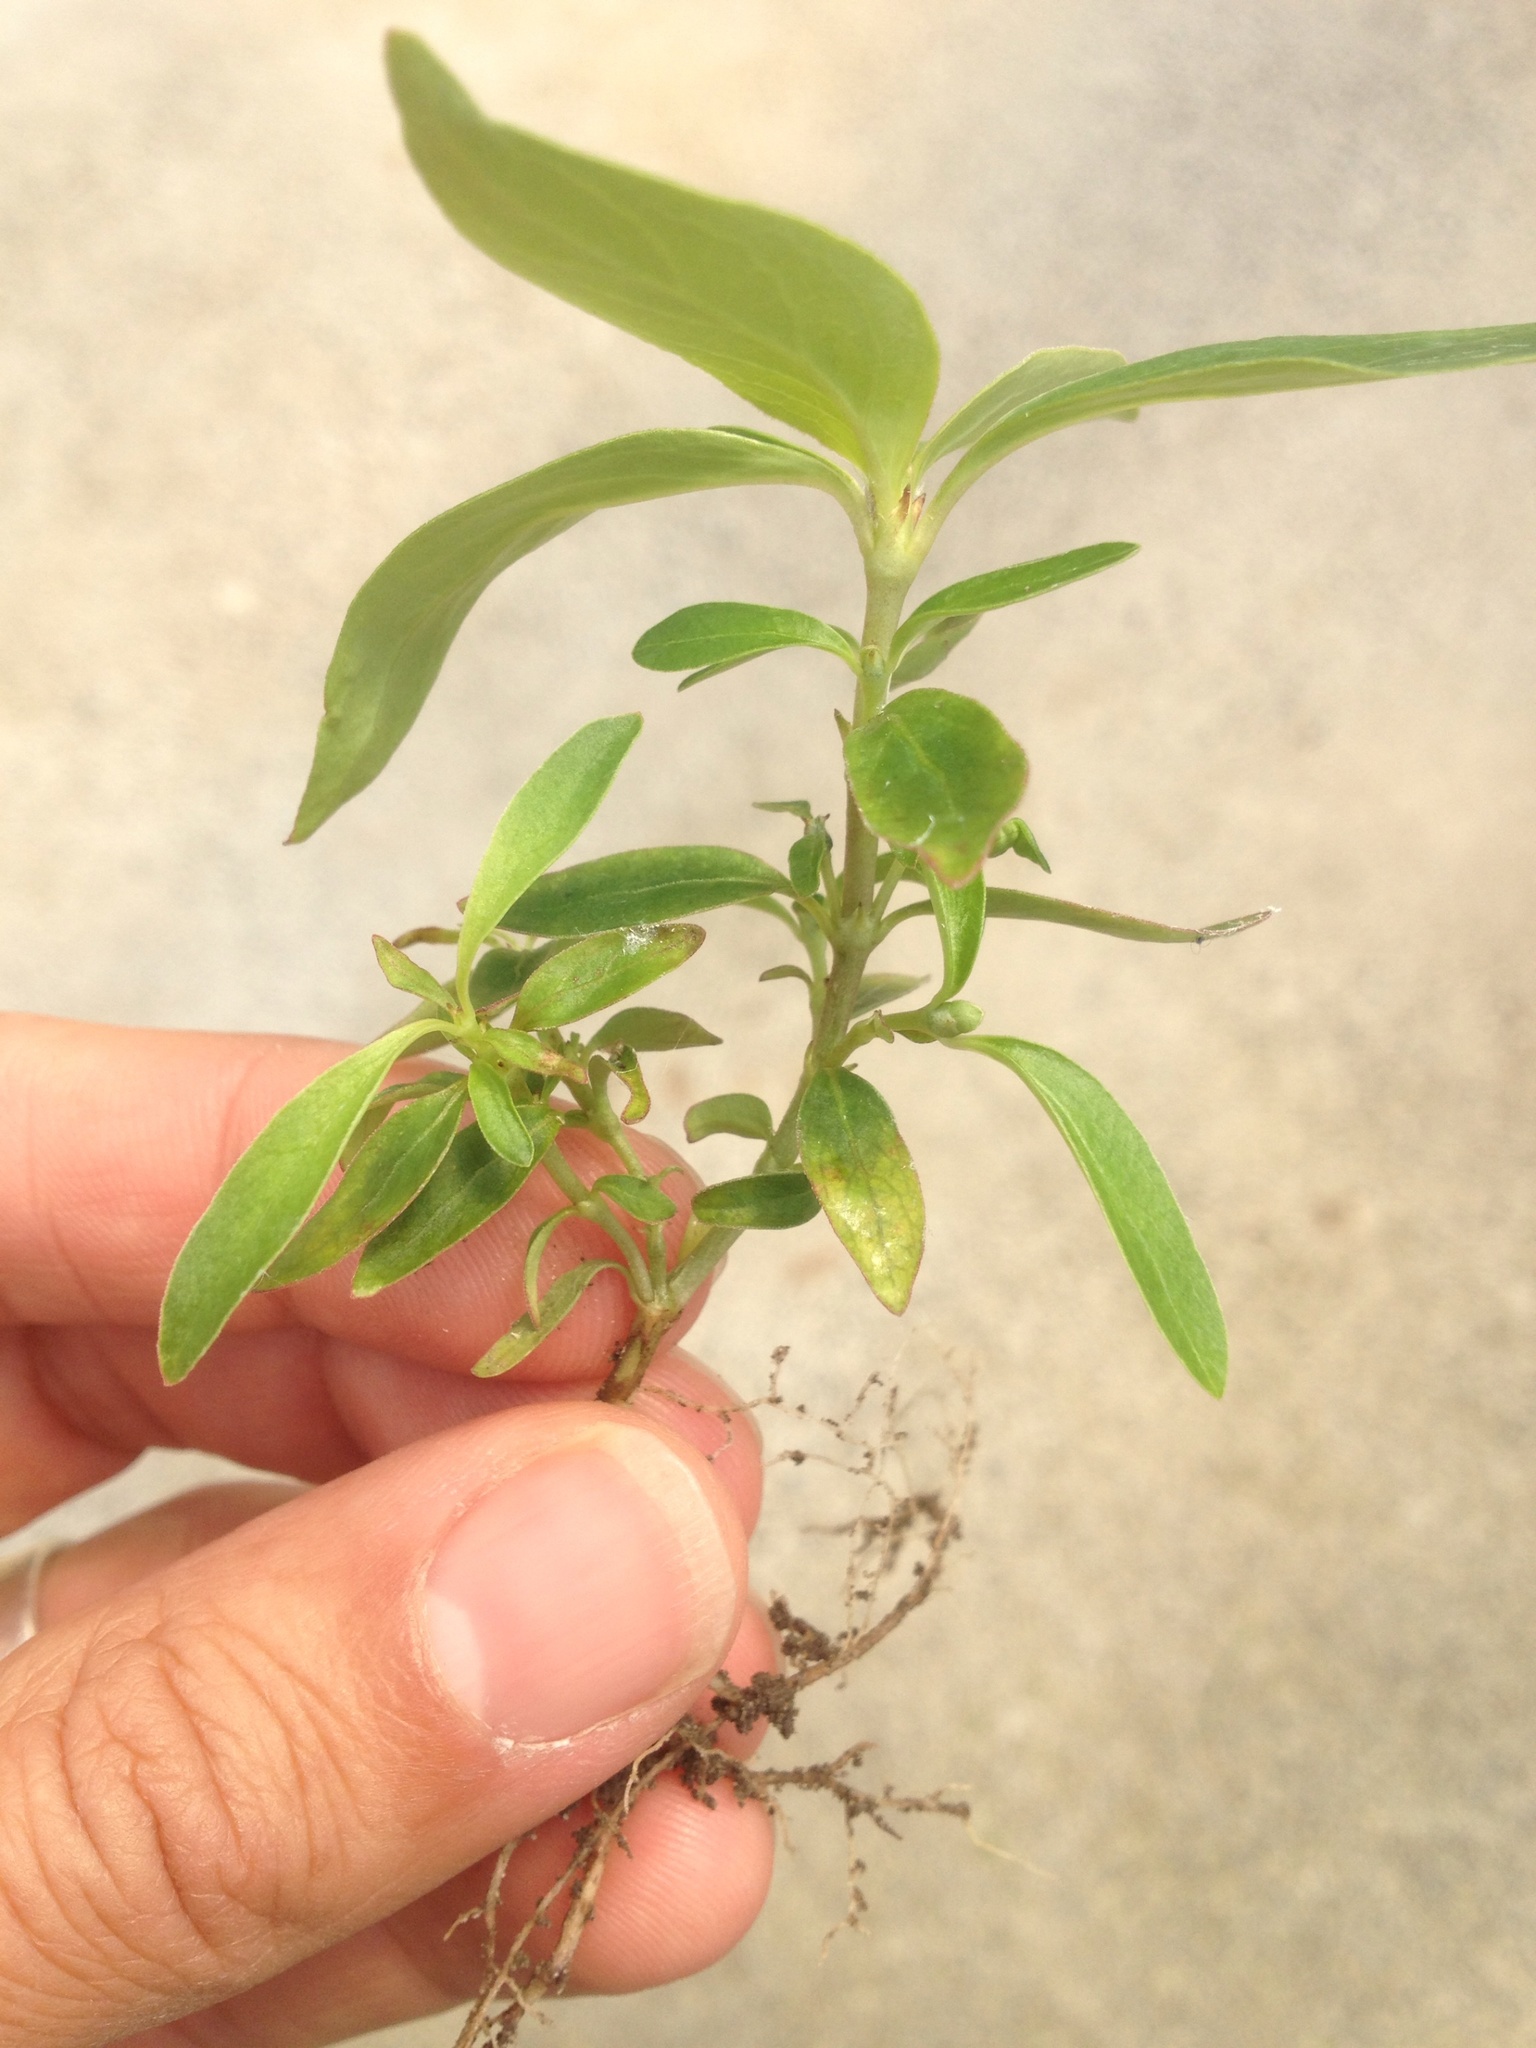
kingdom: Plantae
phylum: Tracheophyta
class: Magnoliopsida
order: Gentianales
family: Rubiaceae
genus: Coprosma
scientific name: Coprosma robusta
